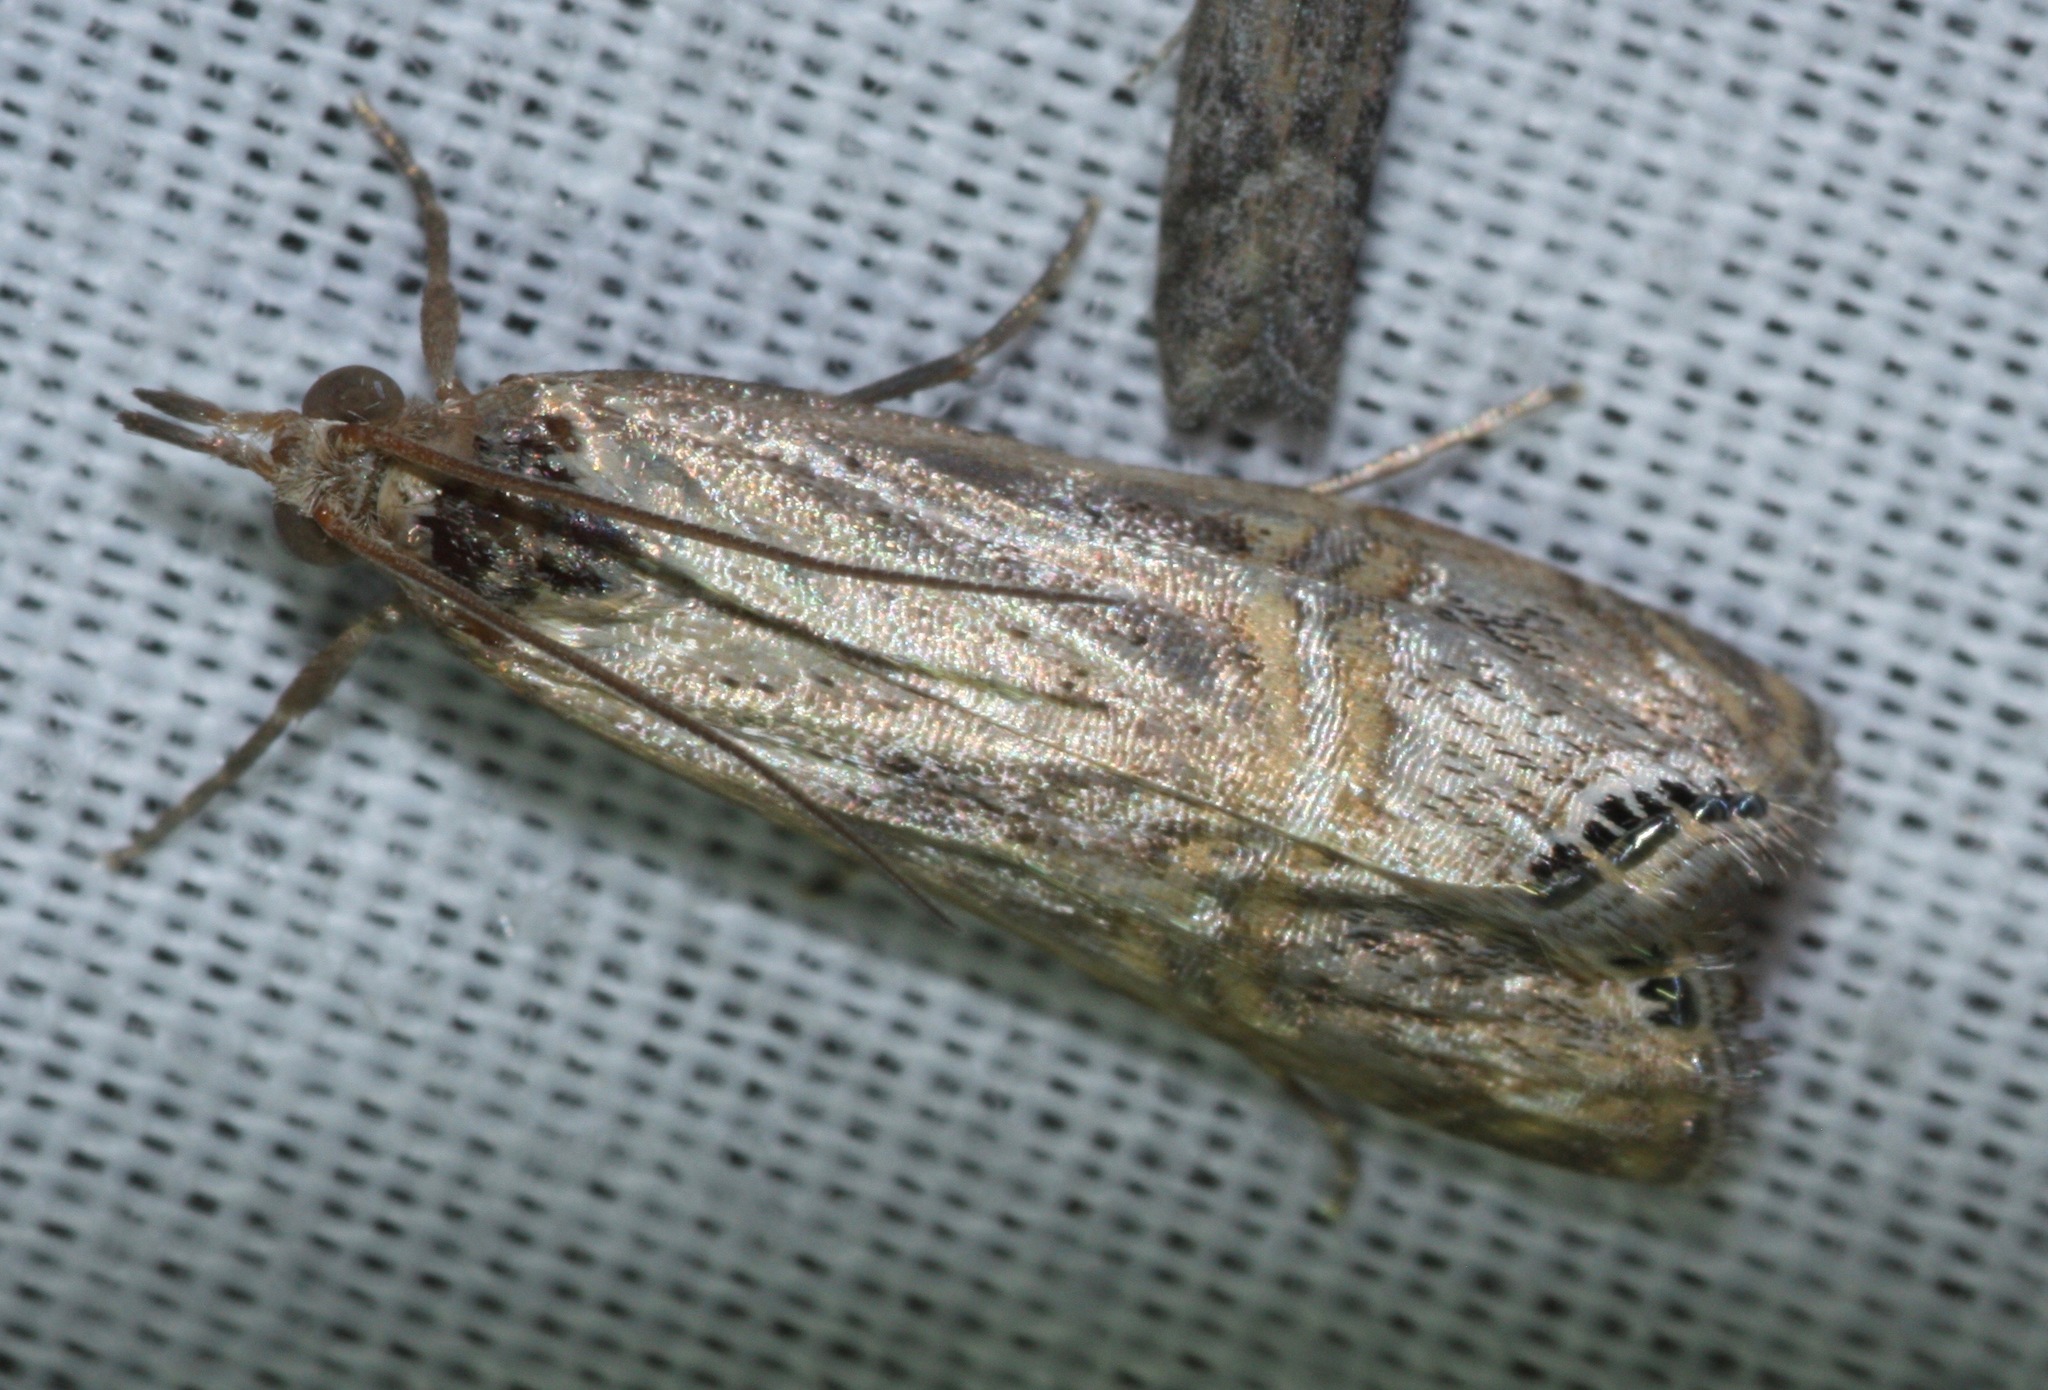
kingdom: Animalia
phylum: Arthropoda
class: Insecta
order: Lepidoptera
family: Crambidae
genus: Euchromius
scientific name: Euchromius ocellea
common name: Necklace veneer moth
